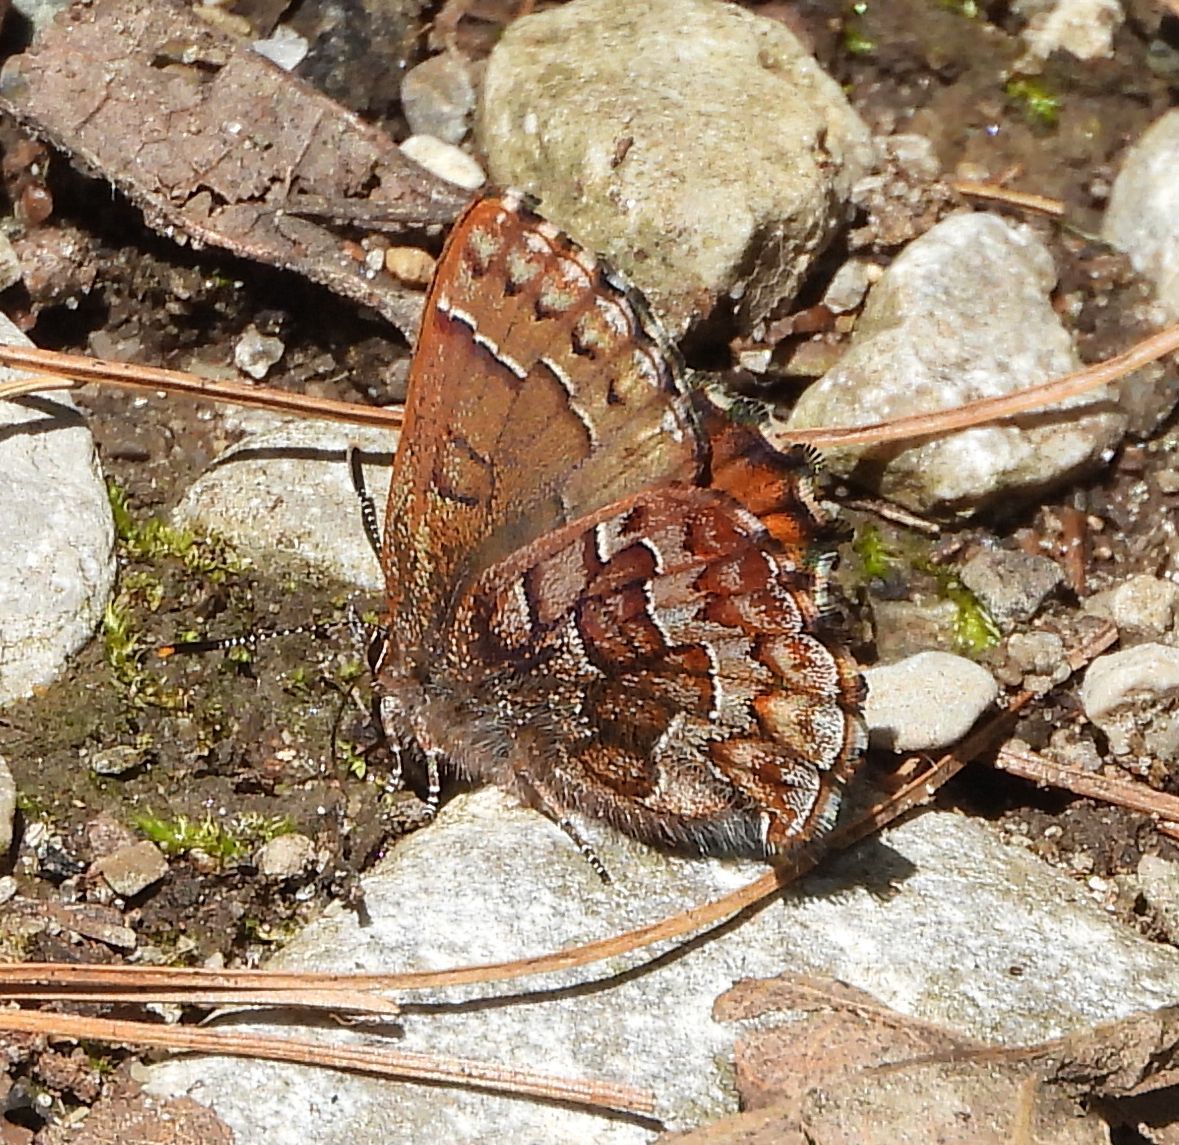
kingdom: Animalia
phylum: Arthropoda
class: Insecta
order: Lepidoptera
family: Lycaenidae
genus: Incisalia
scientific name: Incisalia niphon
